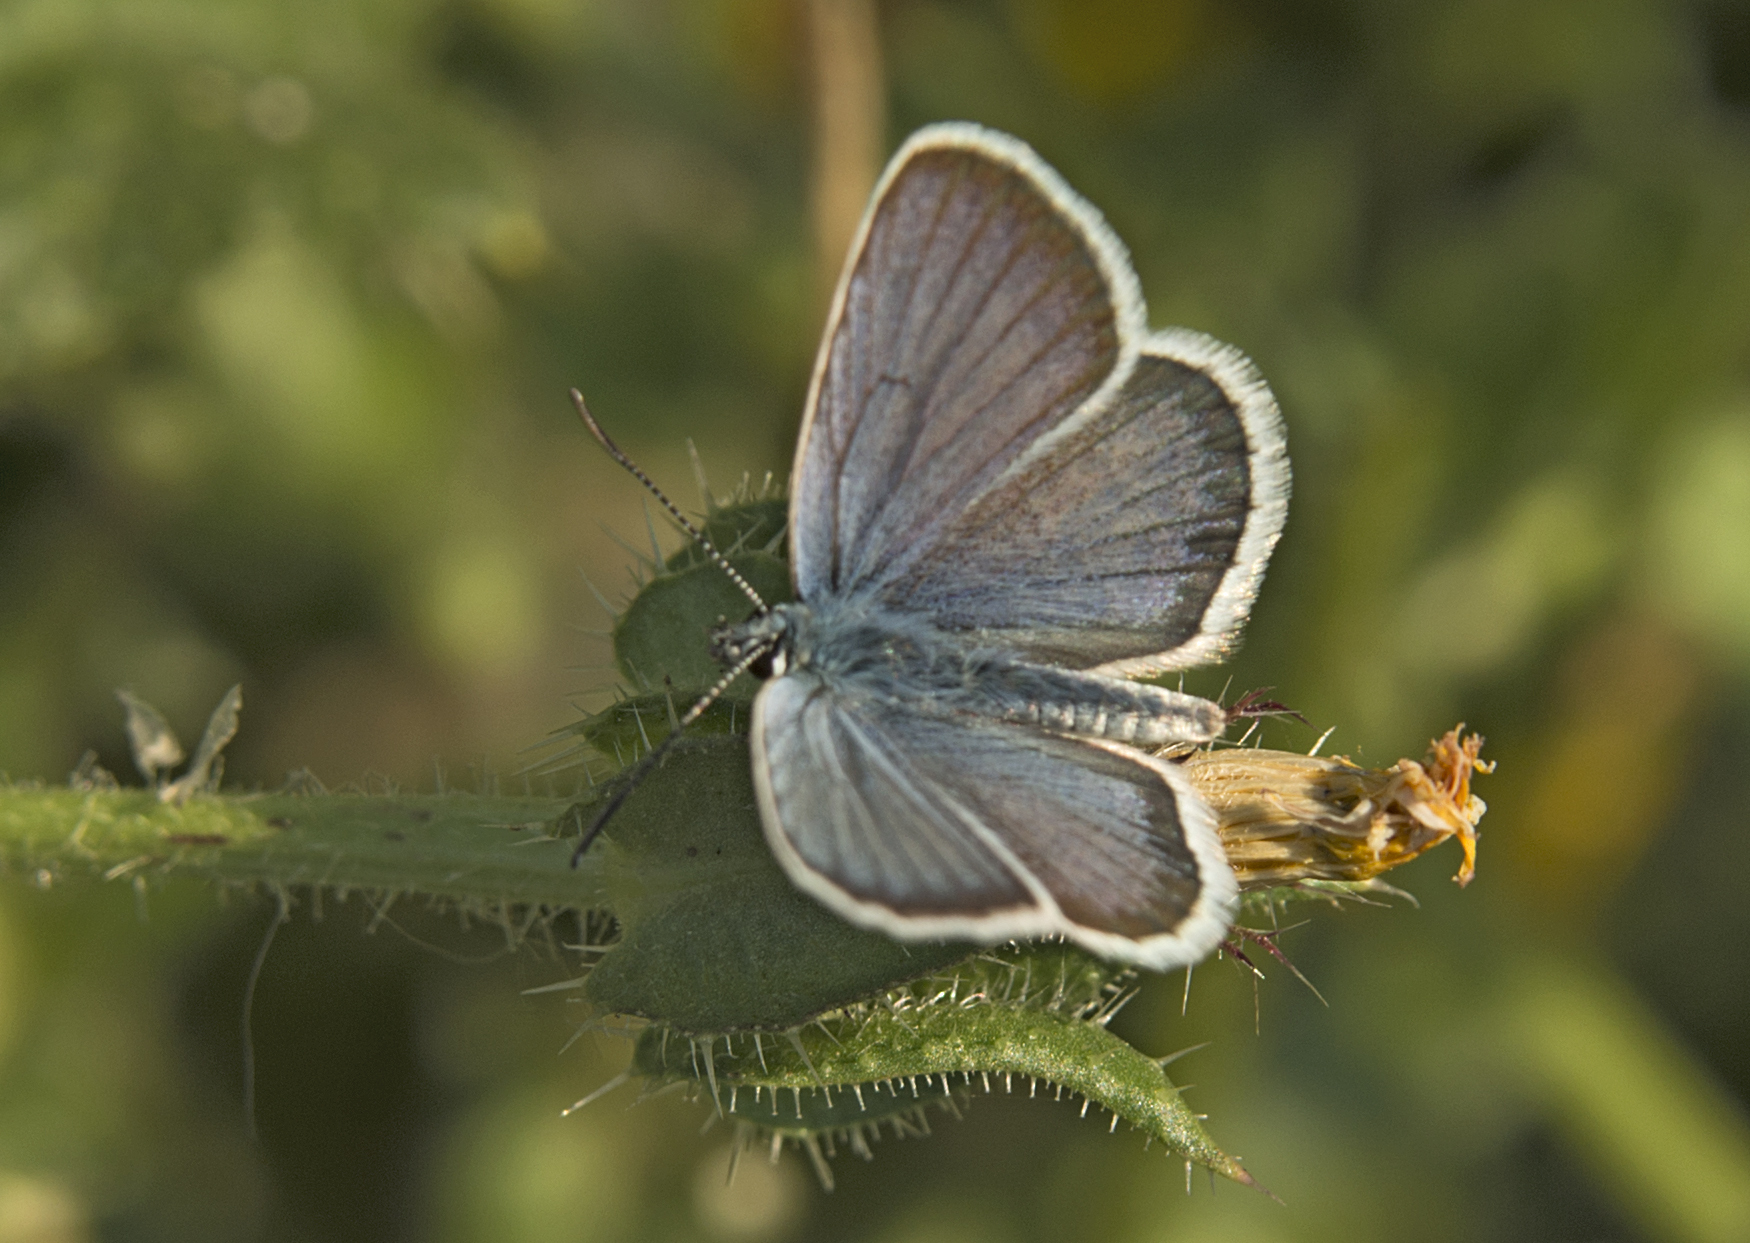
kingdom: Animalia
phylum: Arthropoda
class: Insecta
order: Lepidoptera
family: Lycaenidae
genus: Plebejus
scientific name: Plebejus argus
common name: Silver-studded blue
